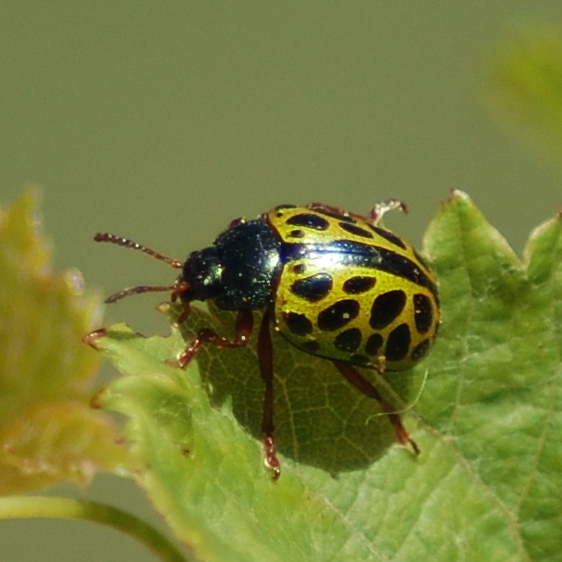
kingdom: Animalia
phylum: Arthropoda
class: Insecta
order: Coleoptera
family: Chrysomelidae
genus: Calligrapha
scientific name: Calligrapha polyspila
